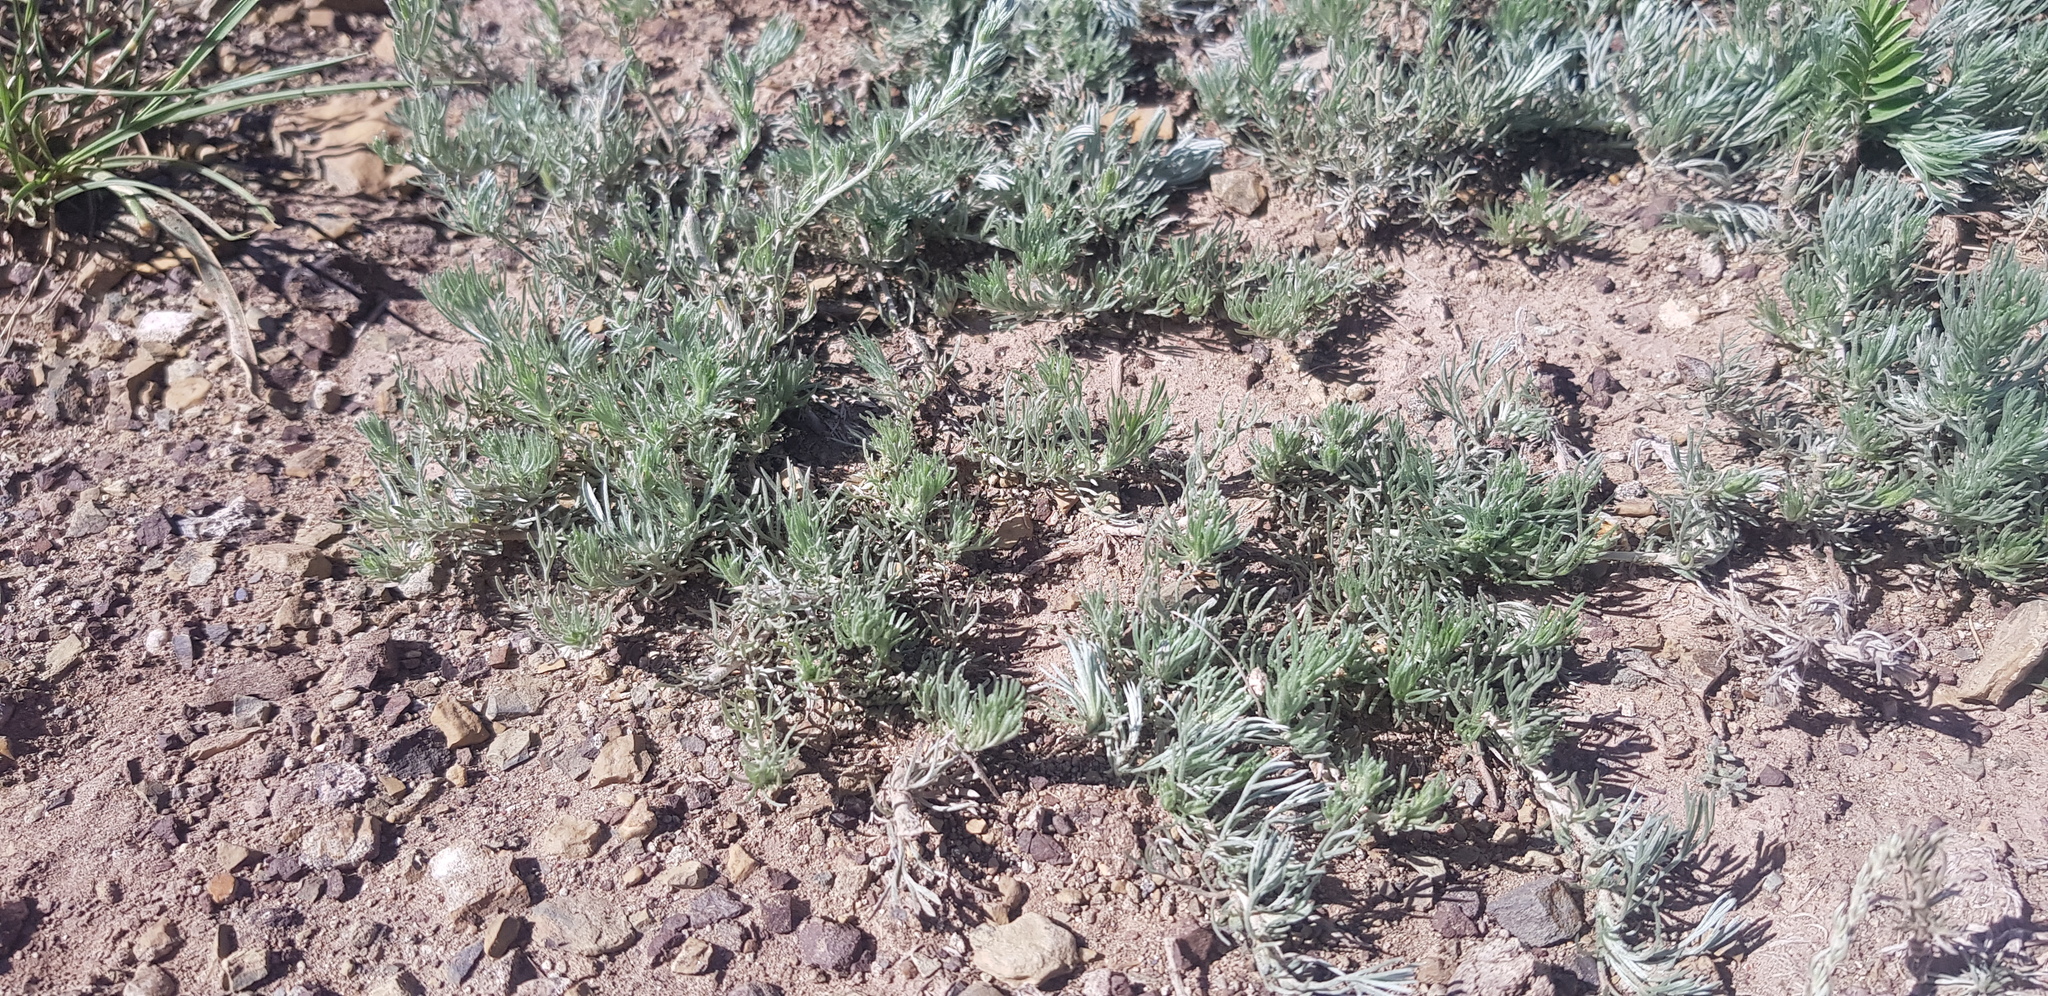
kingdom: Plantae
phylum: Tracheophyta
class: Magnoliopsida
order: Solanales
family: Convolvulaceae
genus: Convolvulus
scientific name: Convolvulus ammannii
